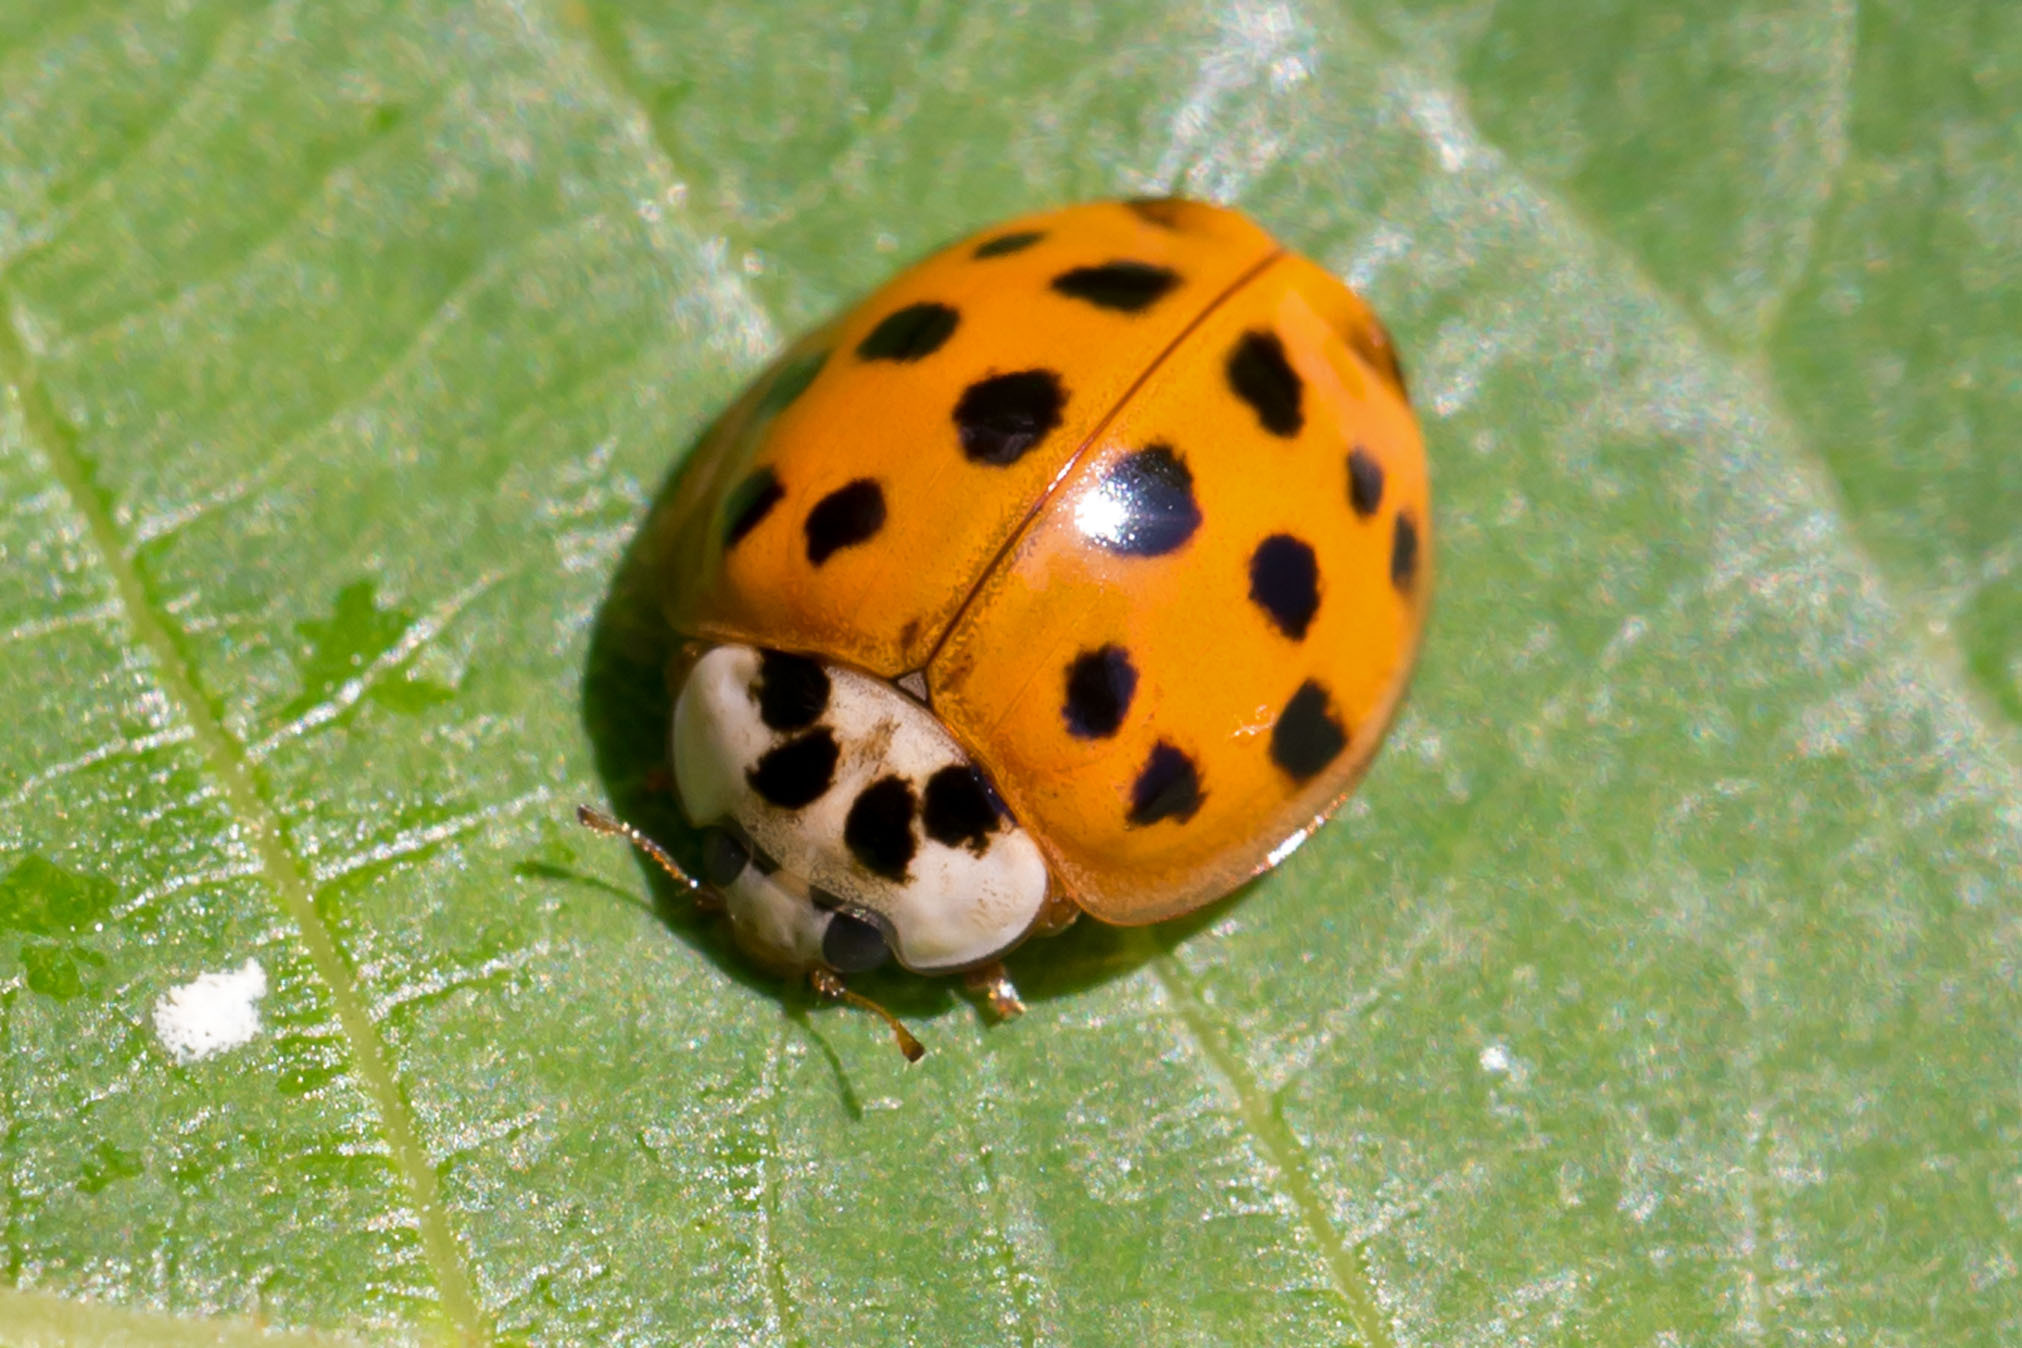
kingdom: Animalia
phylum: Arthropoda
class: Insecta
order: Coleoptera
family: Coccinellidae
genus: Harmonia
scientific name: Harmonia axyridis
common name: Harlequin ladybird
